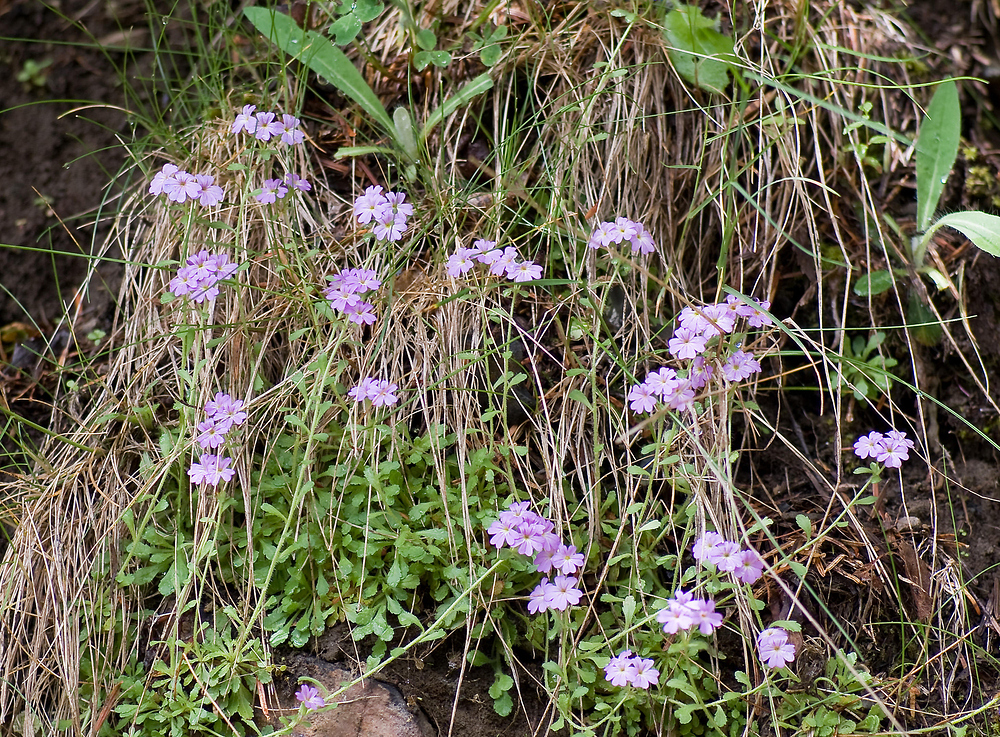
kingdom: Plantae
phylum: Tracheophyta
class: Magnoliopsida
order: Lamiales
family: Plantaginaceae
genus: Erinus
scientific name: Erinus alpinus
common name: Fairy foxglove
